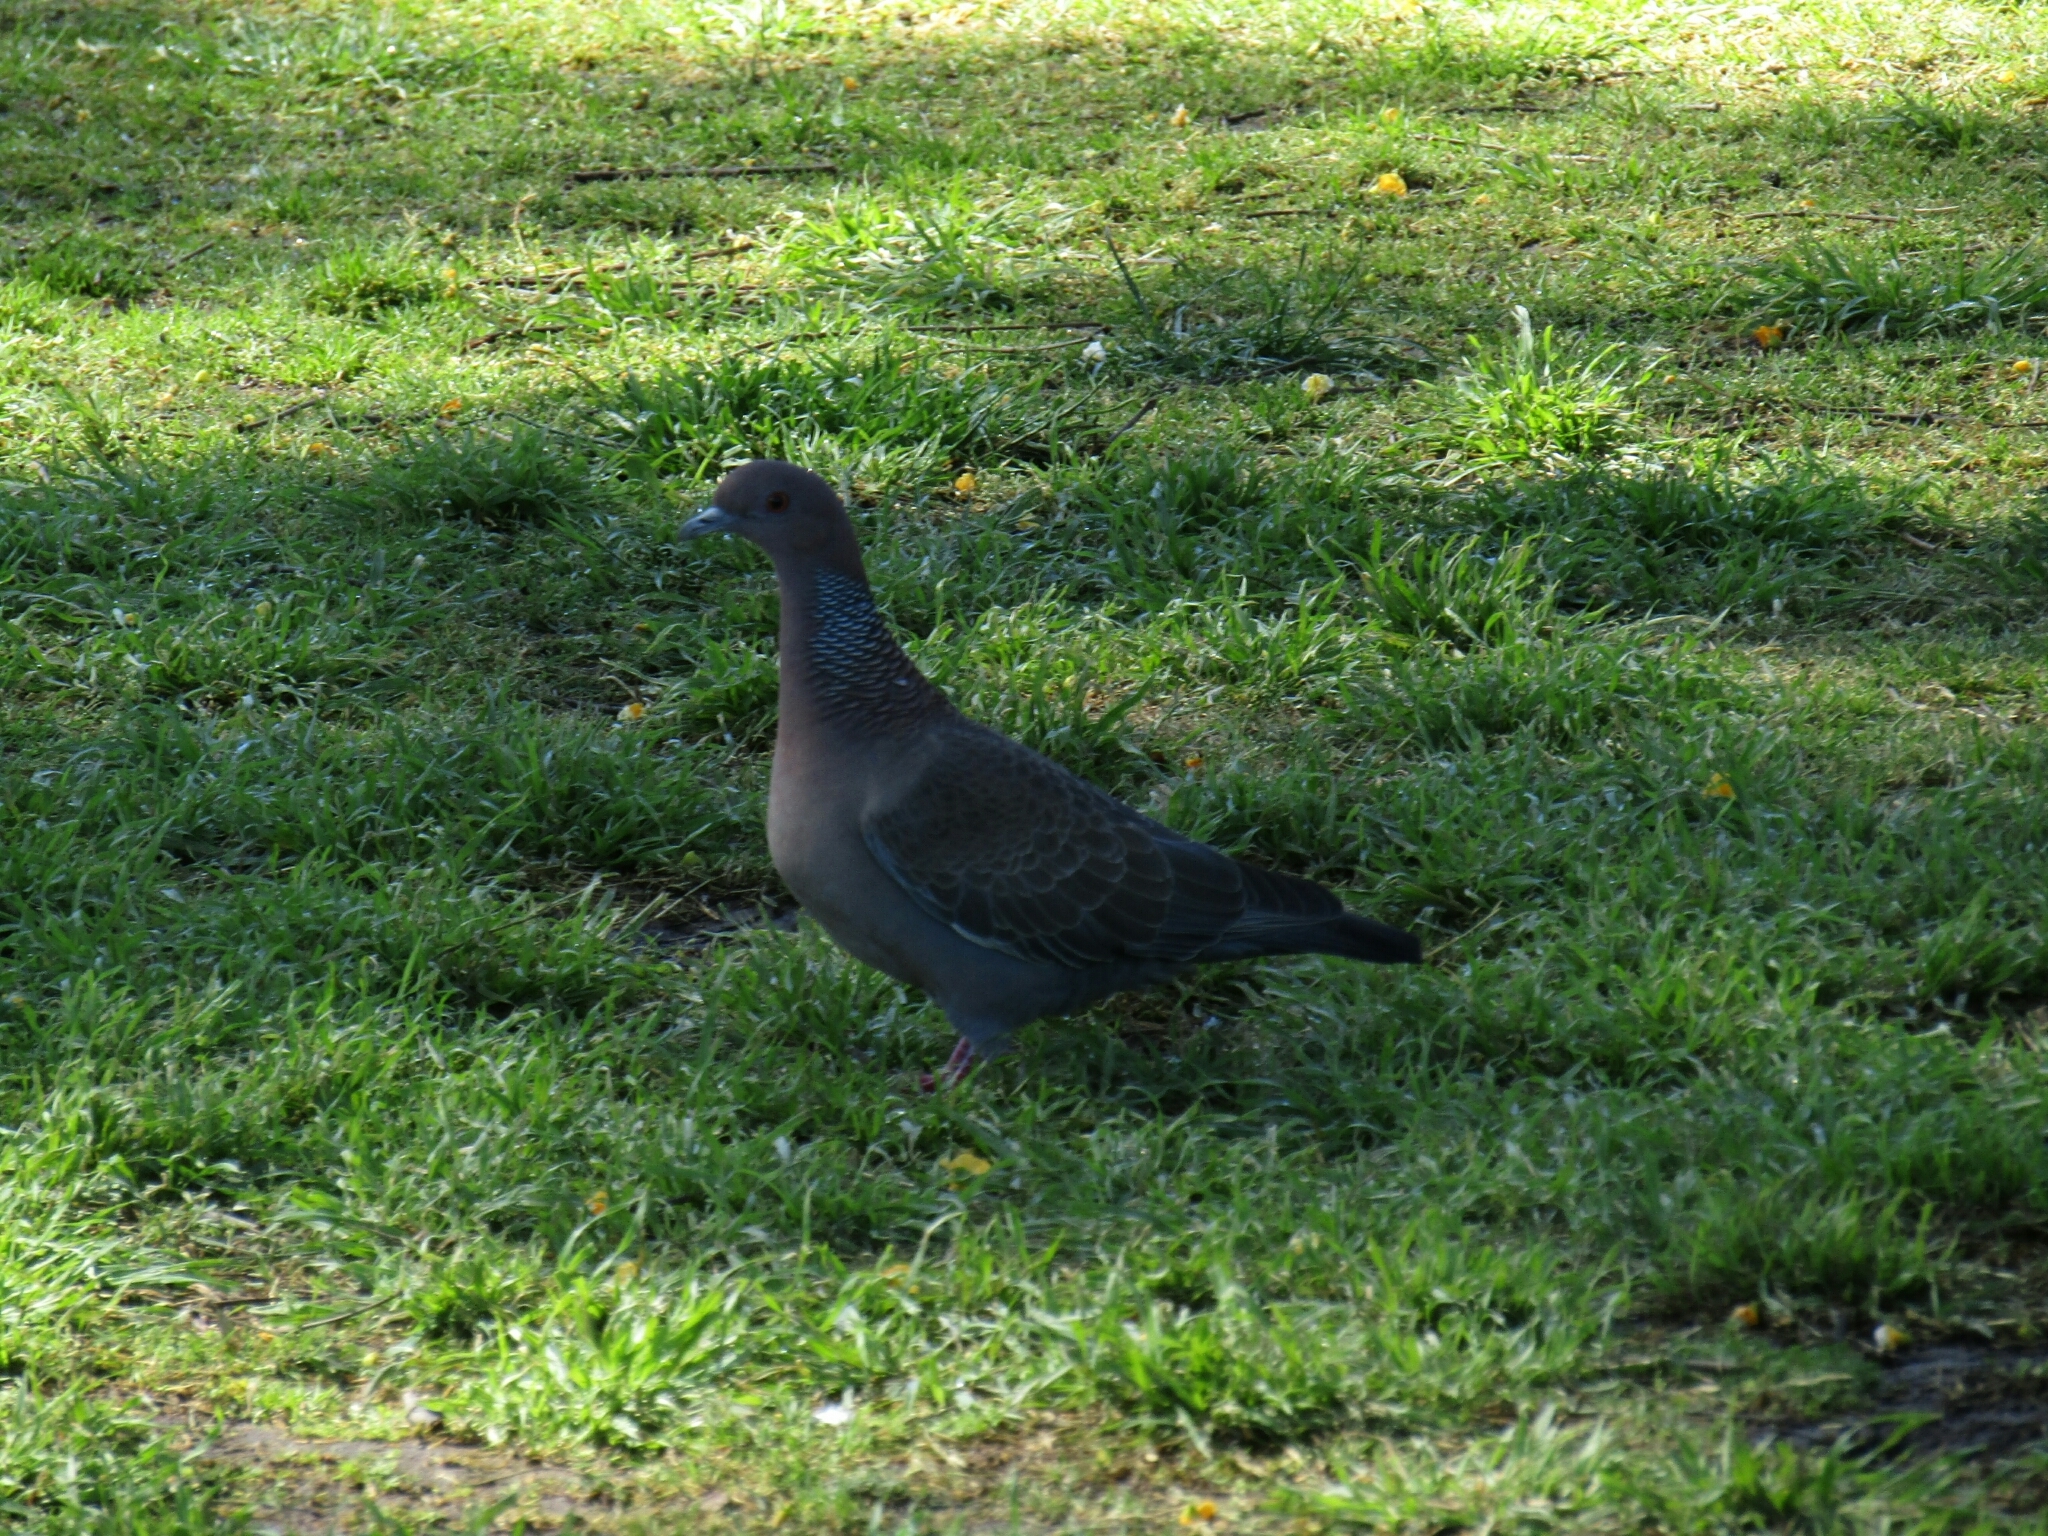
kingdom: Animalia
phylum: Chordata
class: Aves
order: Columbiformes
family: Columbidae
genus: Patagioenas
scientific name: Patagioenas picazuro
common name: Picazuro pigeon
